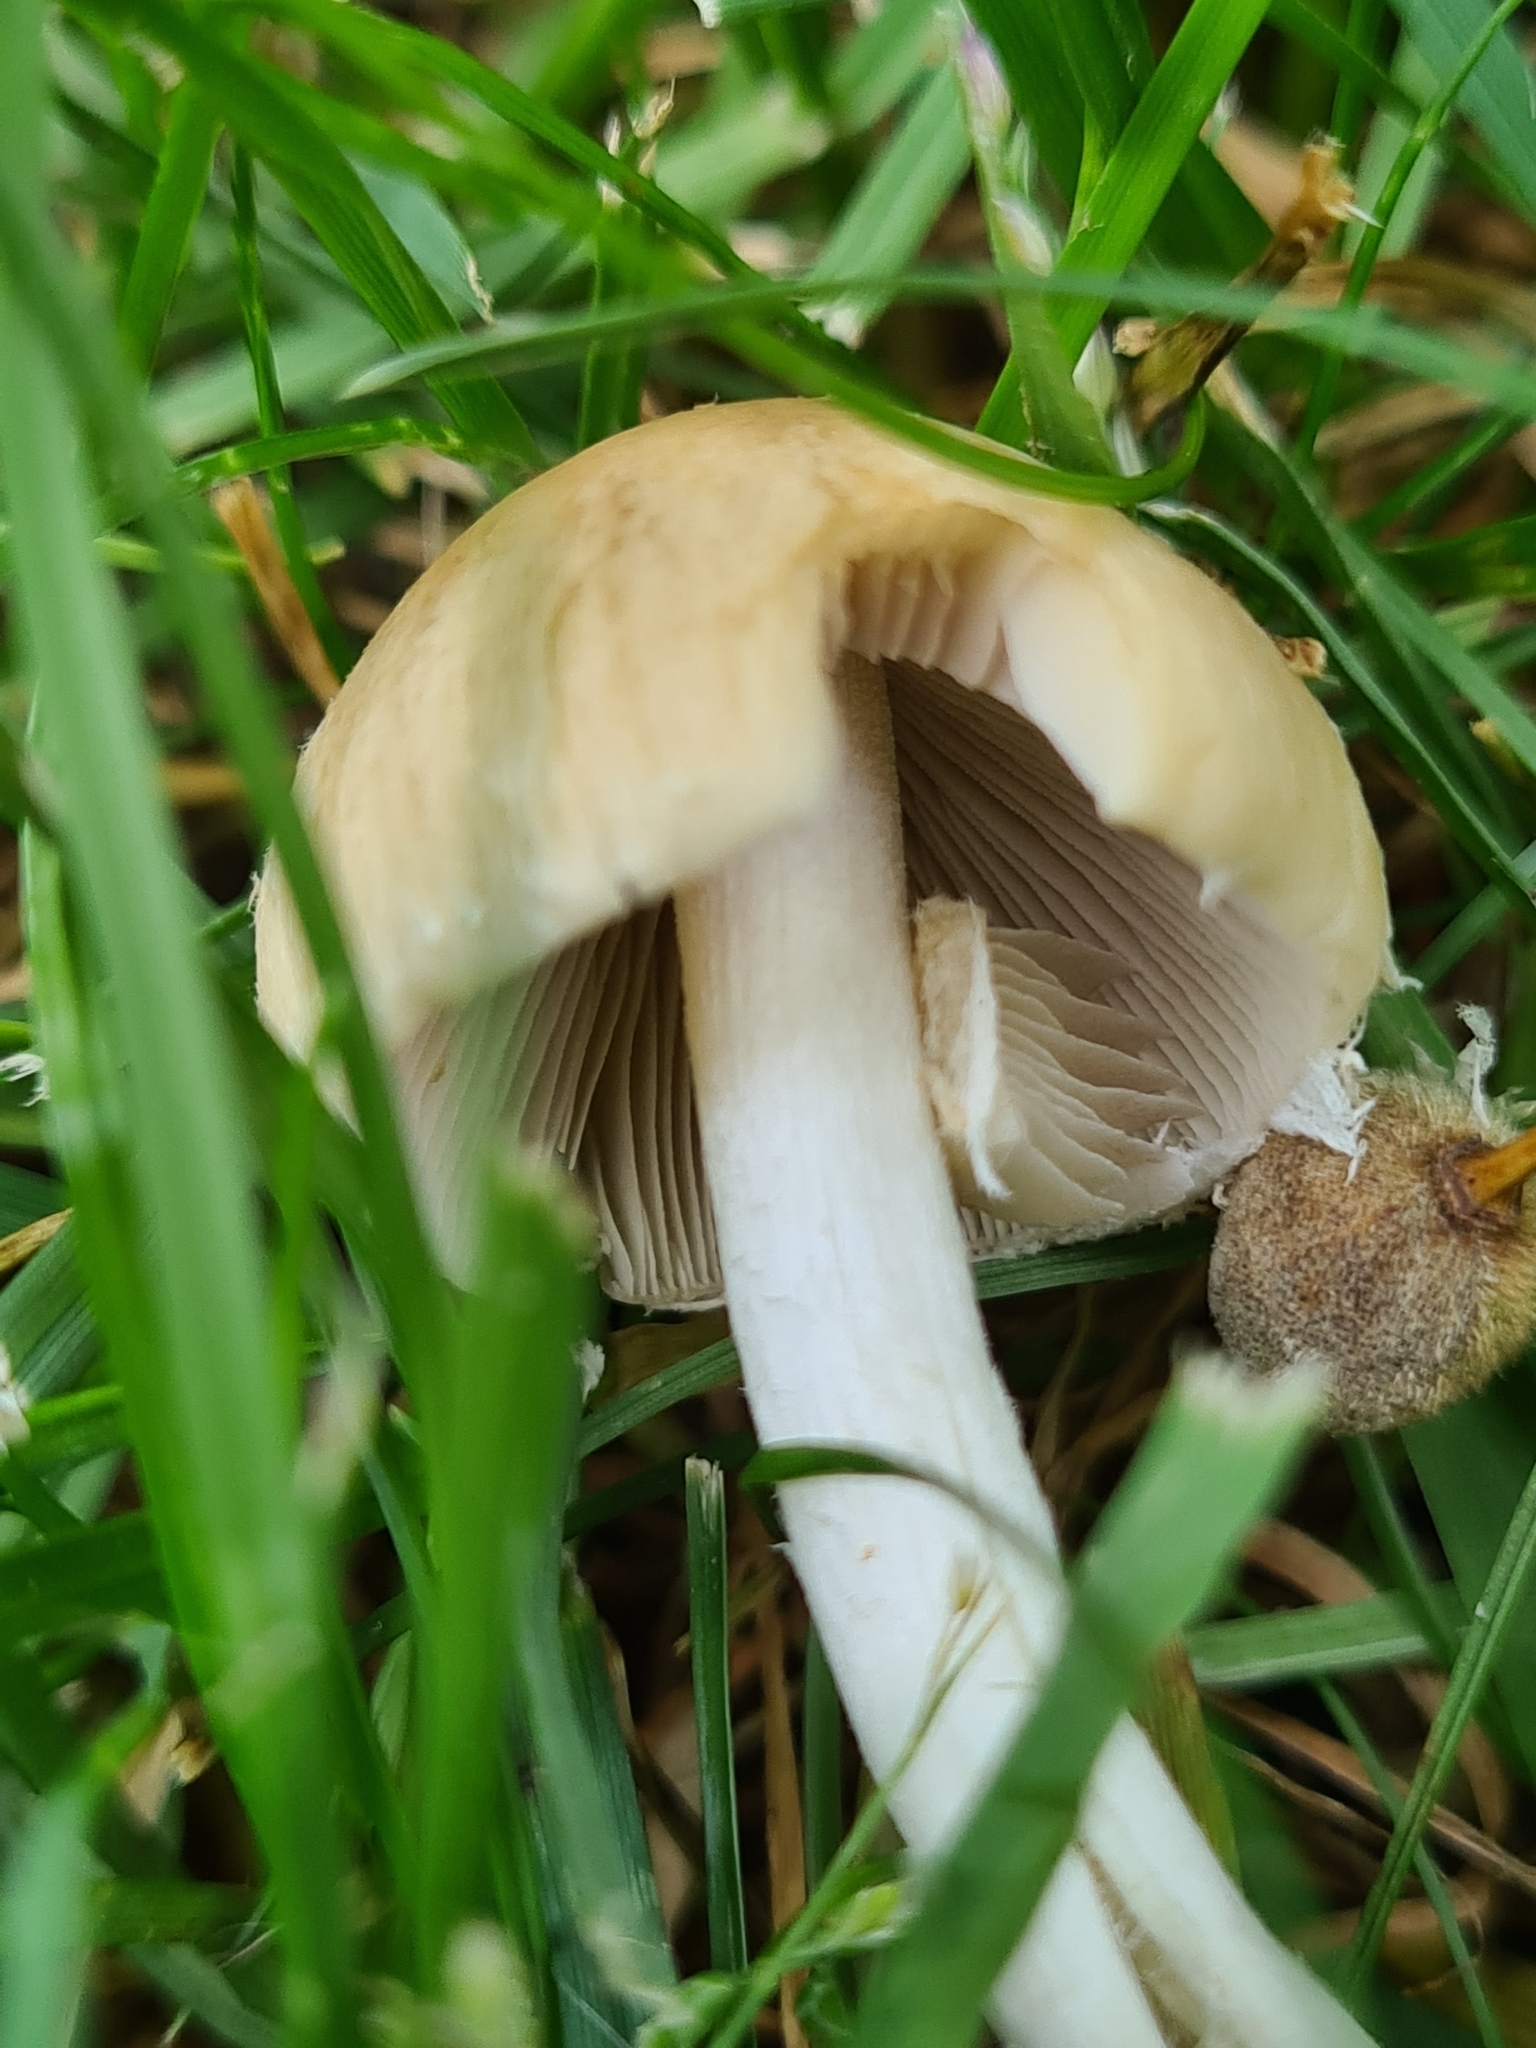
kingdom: Fungi
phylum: Basidiomycota
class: Agaricomycetes
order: Agaricales
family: Psathyrellaceae
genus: Candolleomyces
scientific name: Candolleomyces candolleanus
